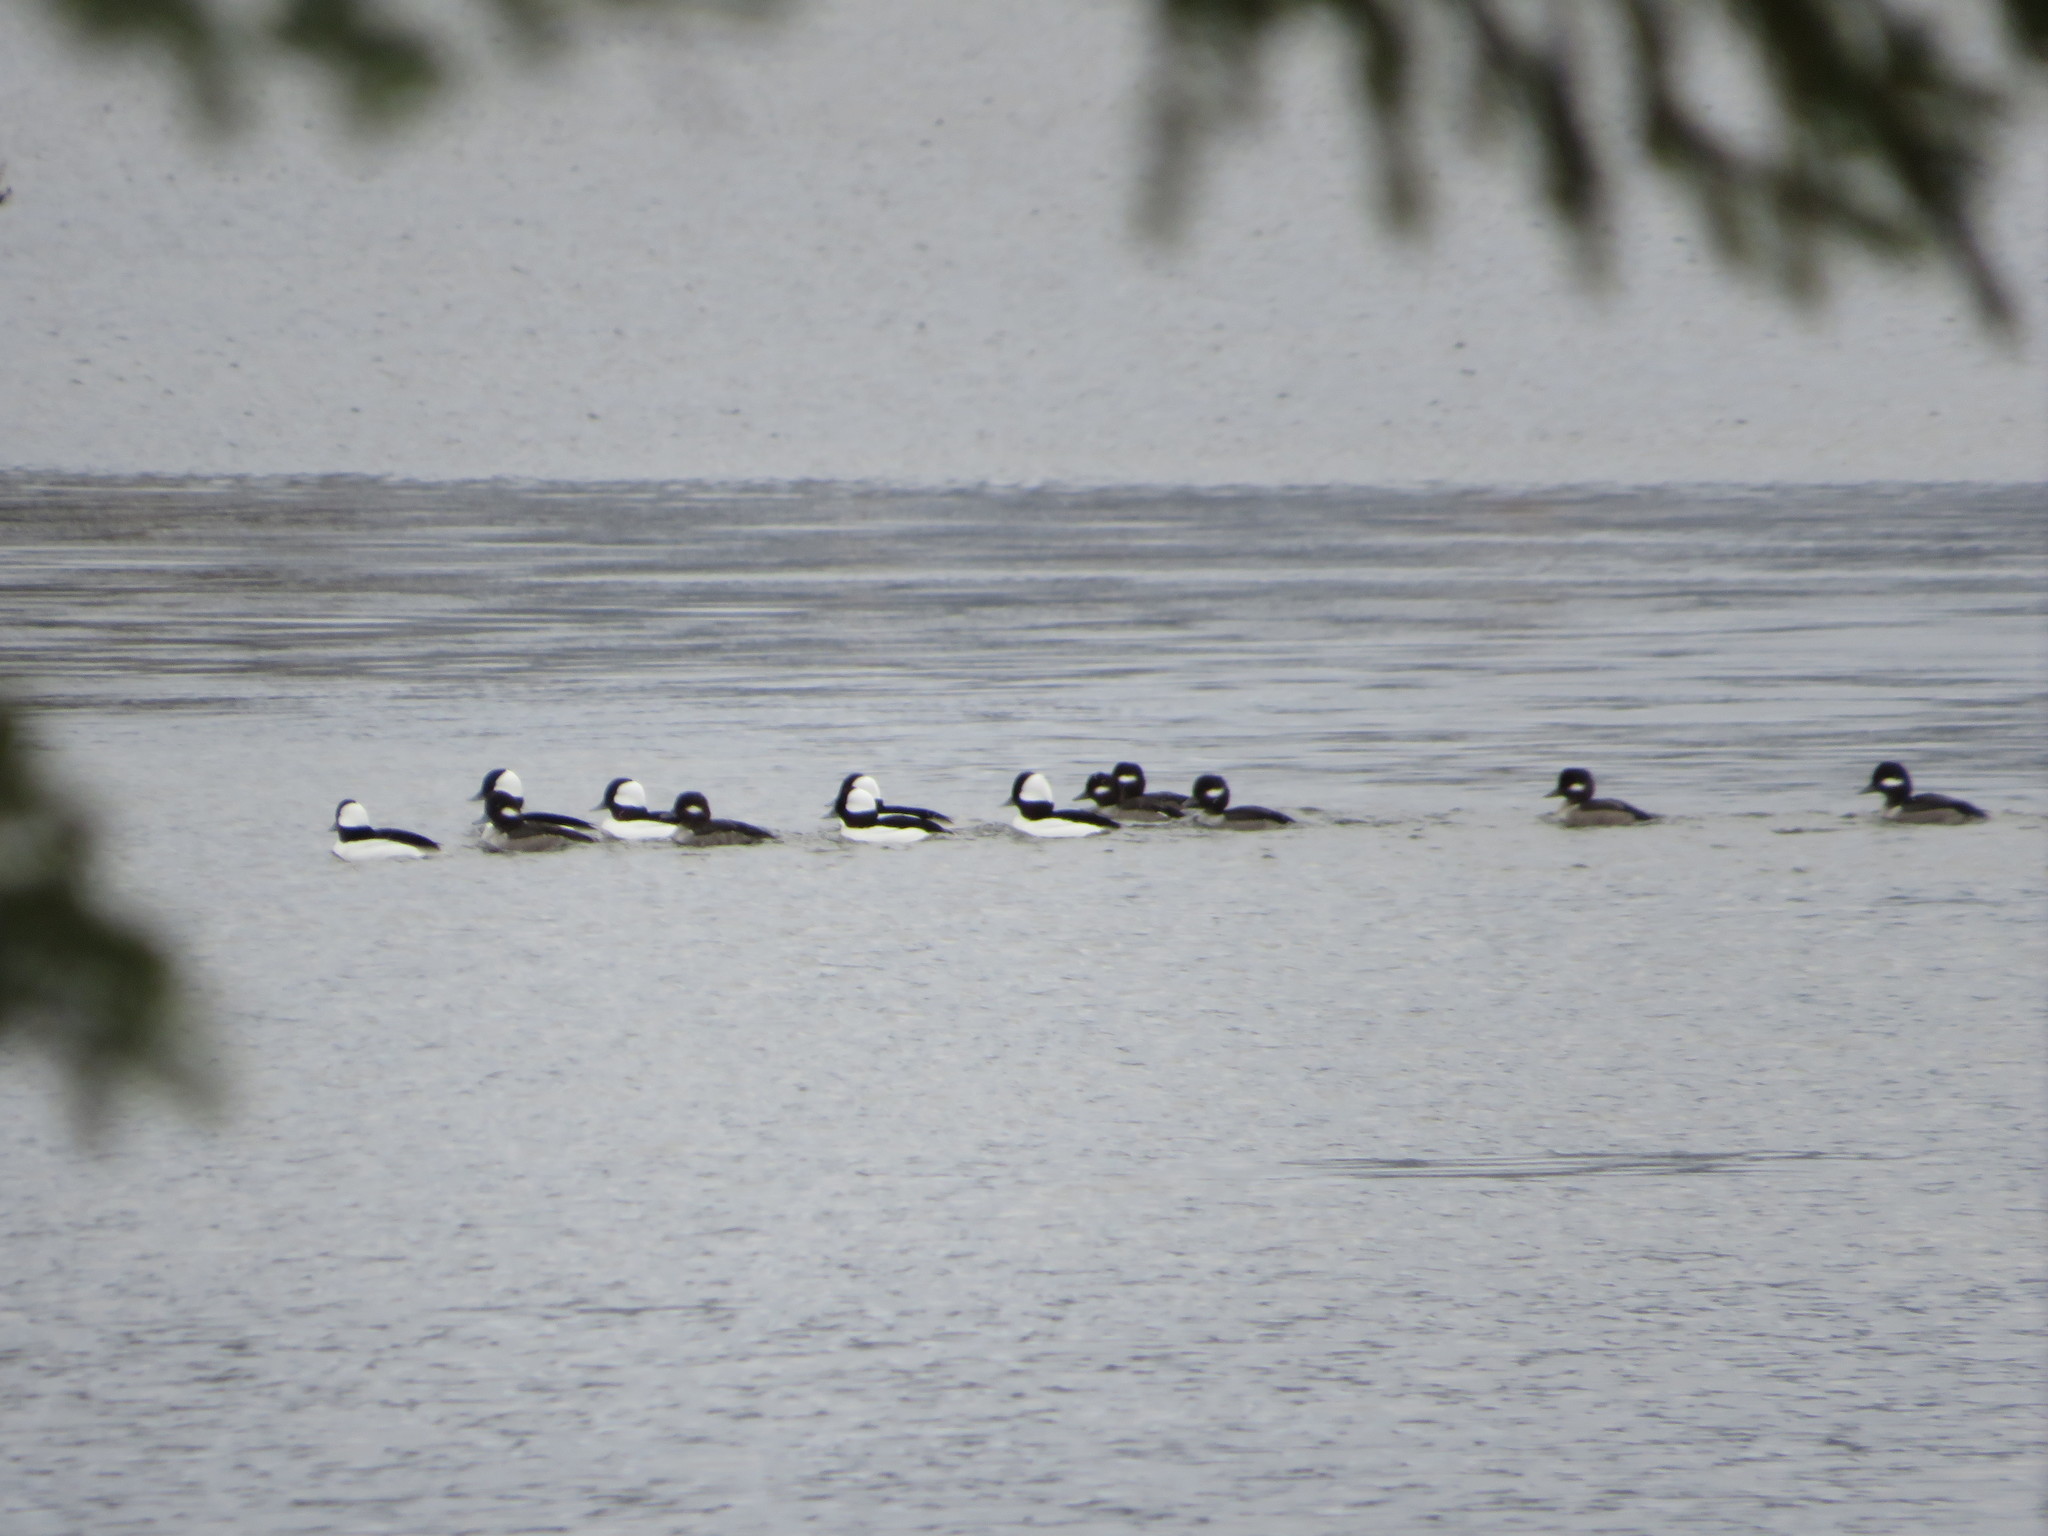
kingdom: Animalia
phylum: Chordata
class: Aves
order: Anseriformes
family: Anatidae
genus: Bucephala
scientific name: Bucephala albeola
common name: Bufflehead
